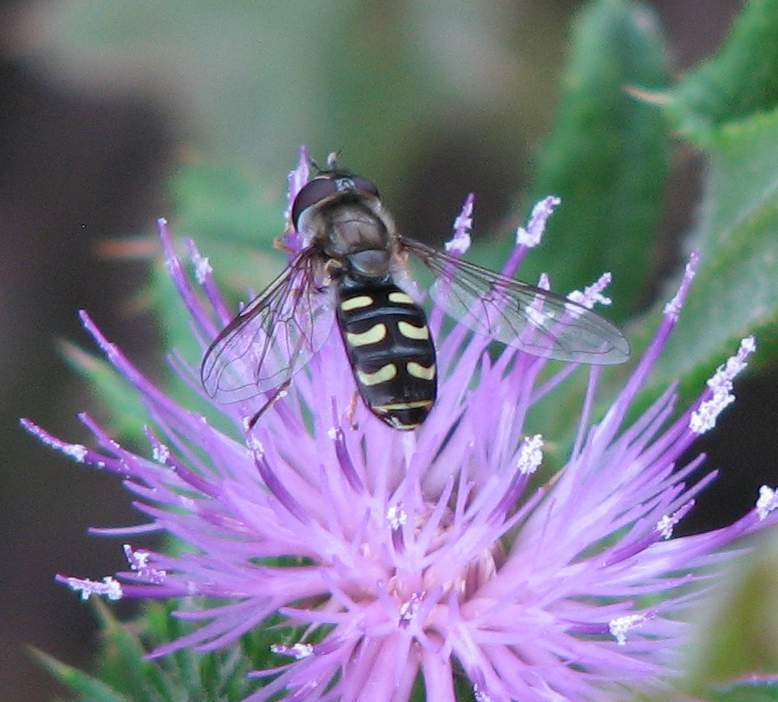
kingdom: Animalia
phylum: Arthropoda
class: Insecta
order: Diptera
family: Syrphidae
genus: Lapposyrphus
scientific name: Lapposyrphus lapponicus
